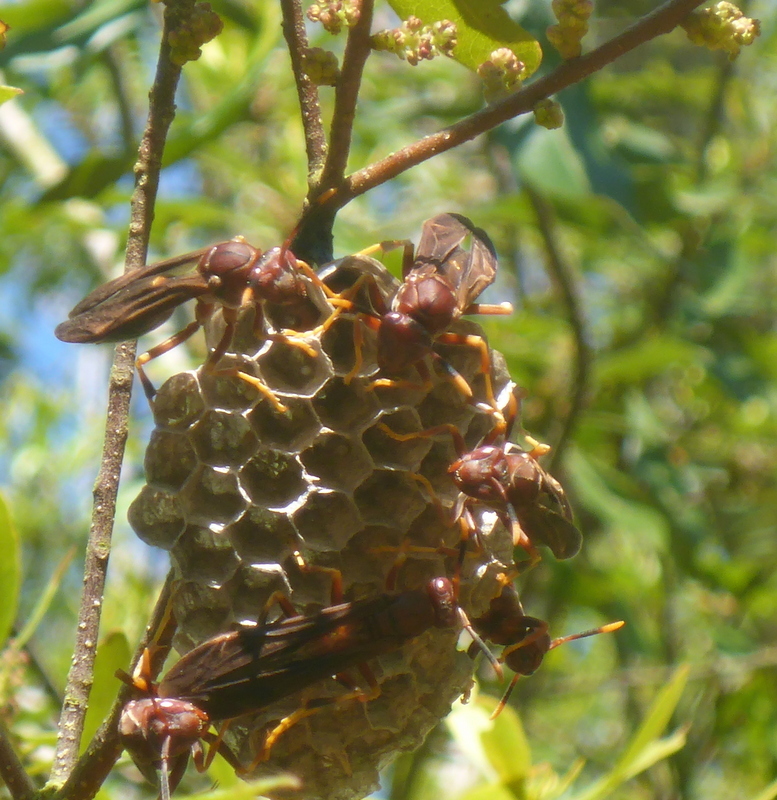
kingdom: Animalia
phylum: Arthropoda
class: Insecta
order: Hymenoptera
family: Eumenidae
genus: Polistes
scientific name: Polistes annularis
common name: Ringed paper wasp
